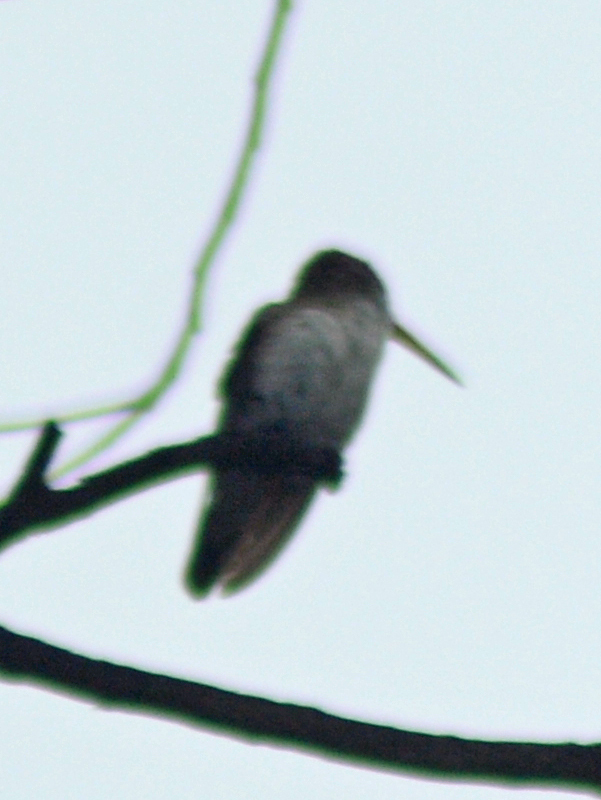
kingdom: Animalia
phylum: Chordata
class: Aves
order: Apodiformes
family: Trochilidae
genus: Leucolia
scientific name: Leucolia violiceps
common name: Violet-crowned hummingbird
